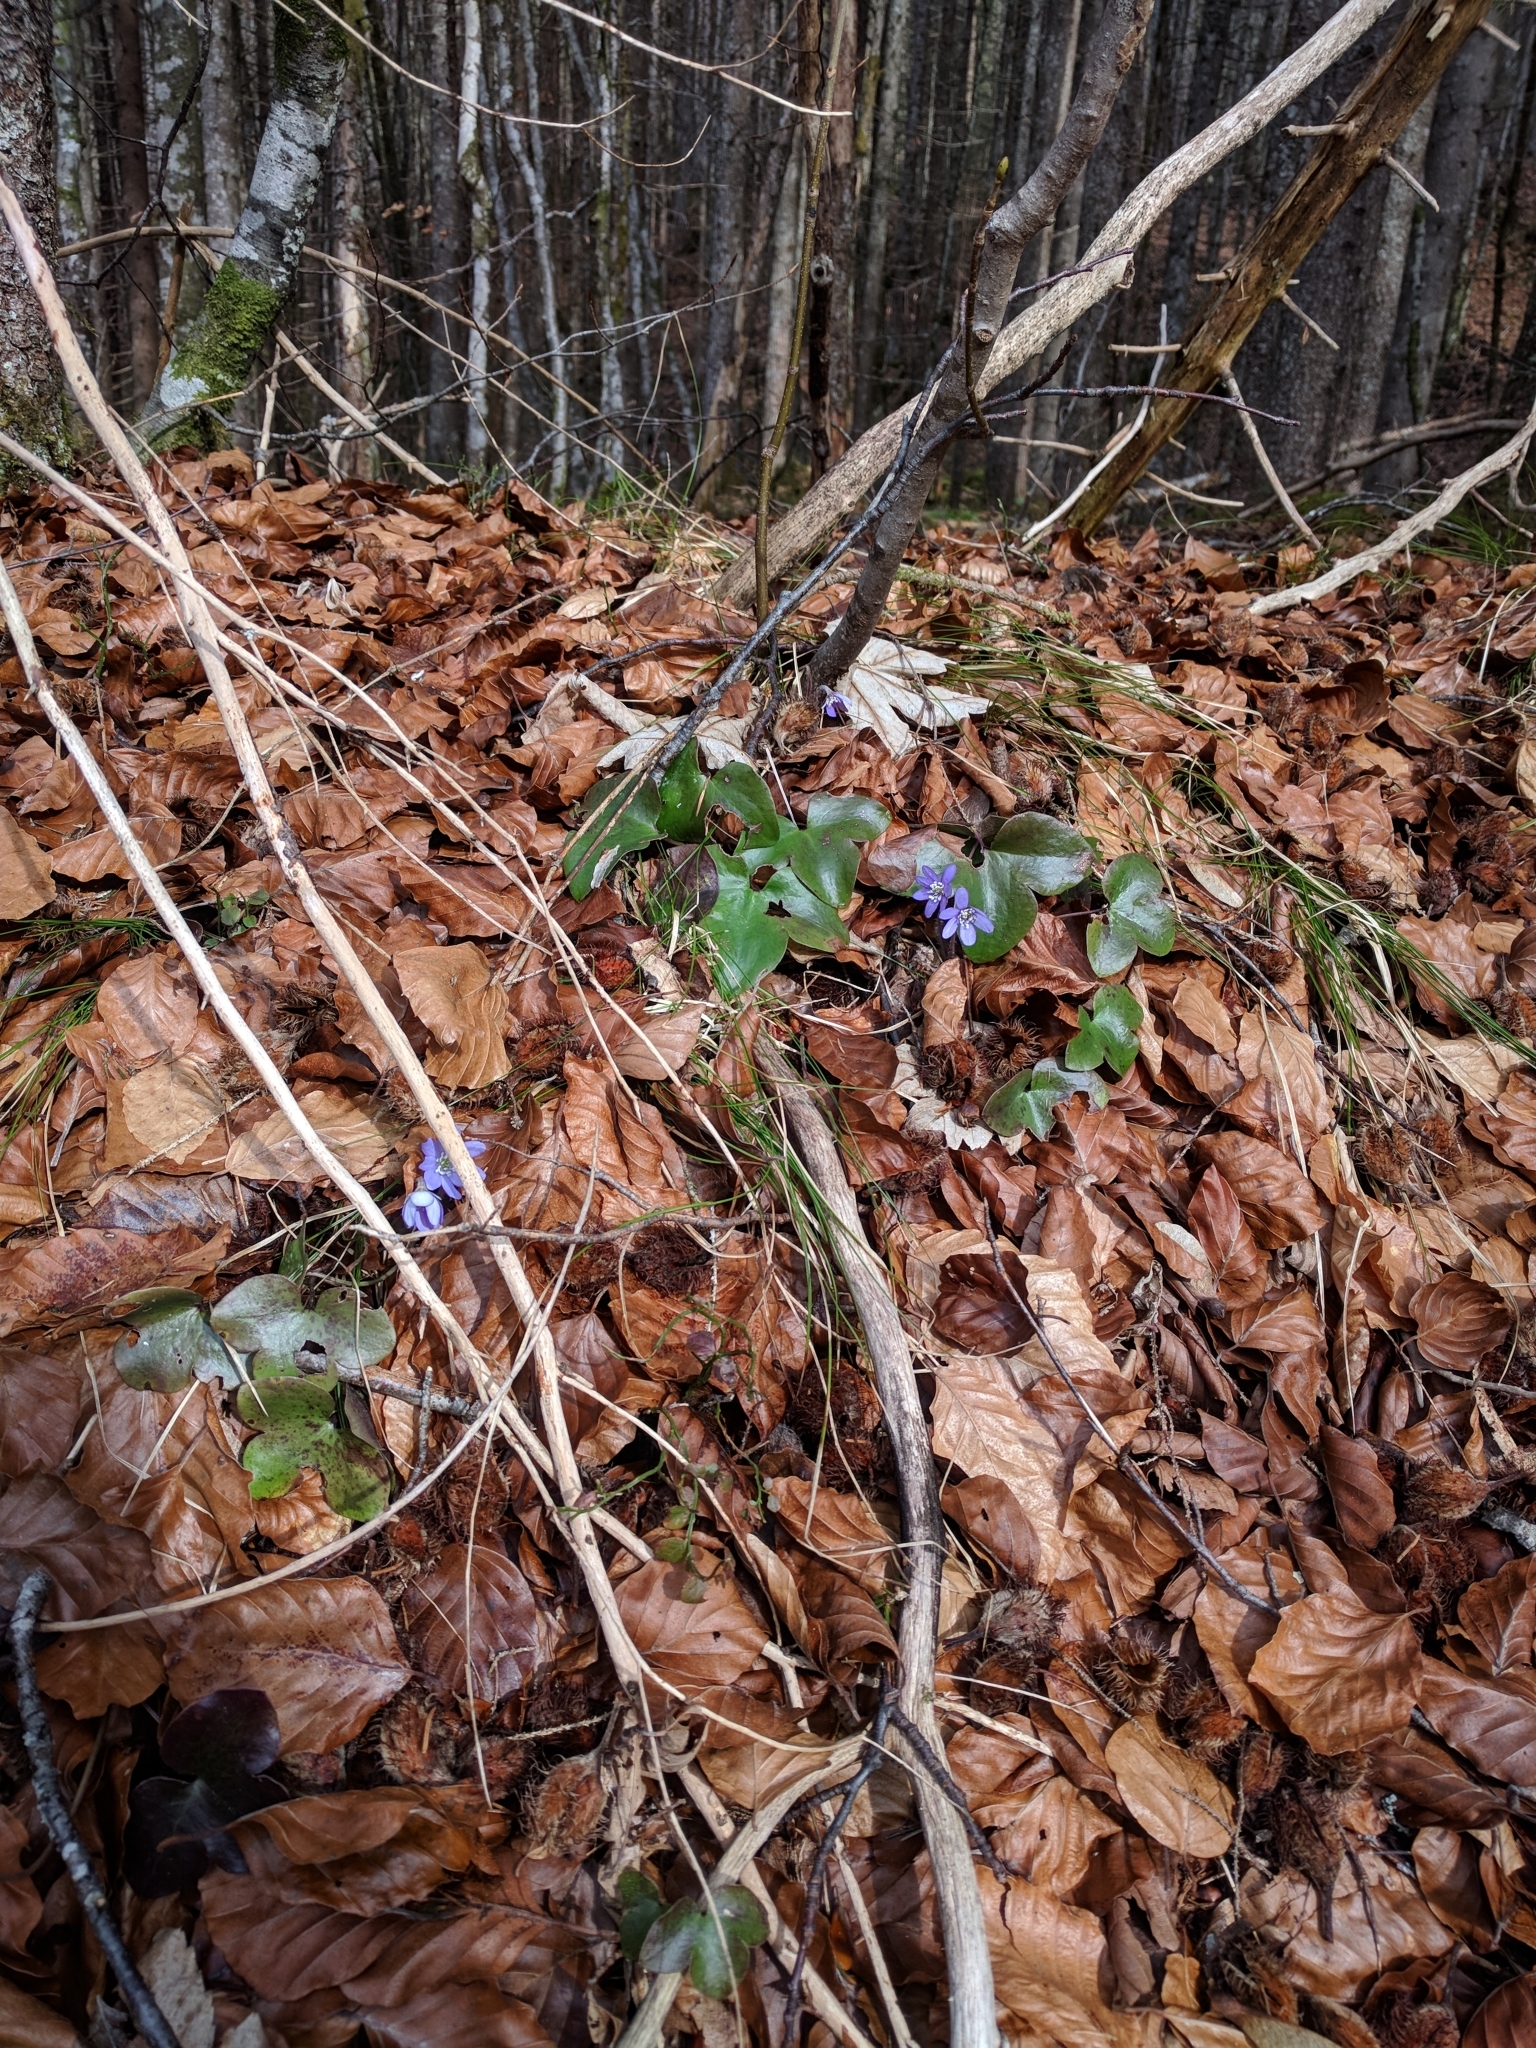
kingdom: Plantae
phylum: Tracheophyta
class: Magnoliopsida
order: Ranunculales
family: Ranunculaceae
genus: Hepatica
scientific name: Hepatica nobilis
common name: Liverleaf
